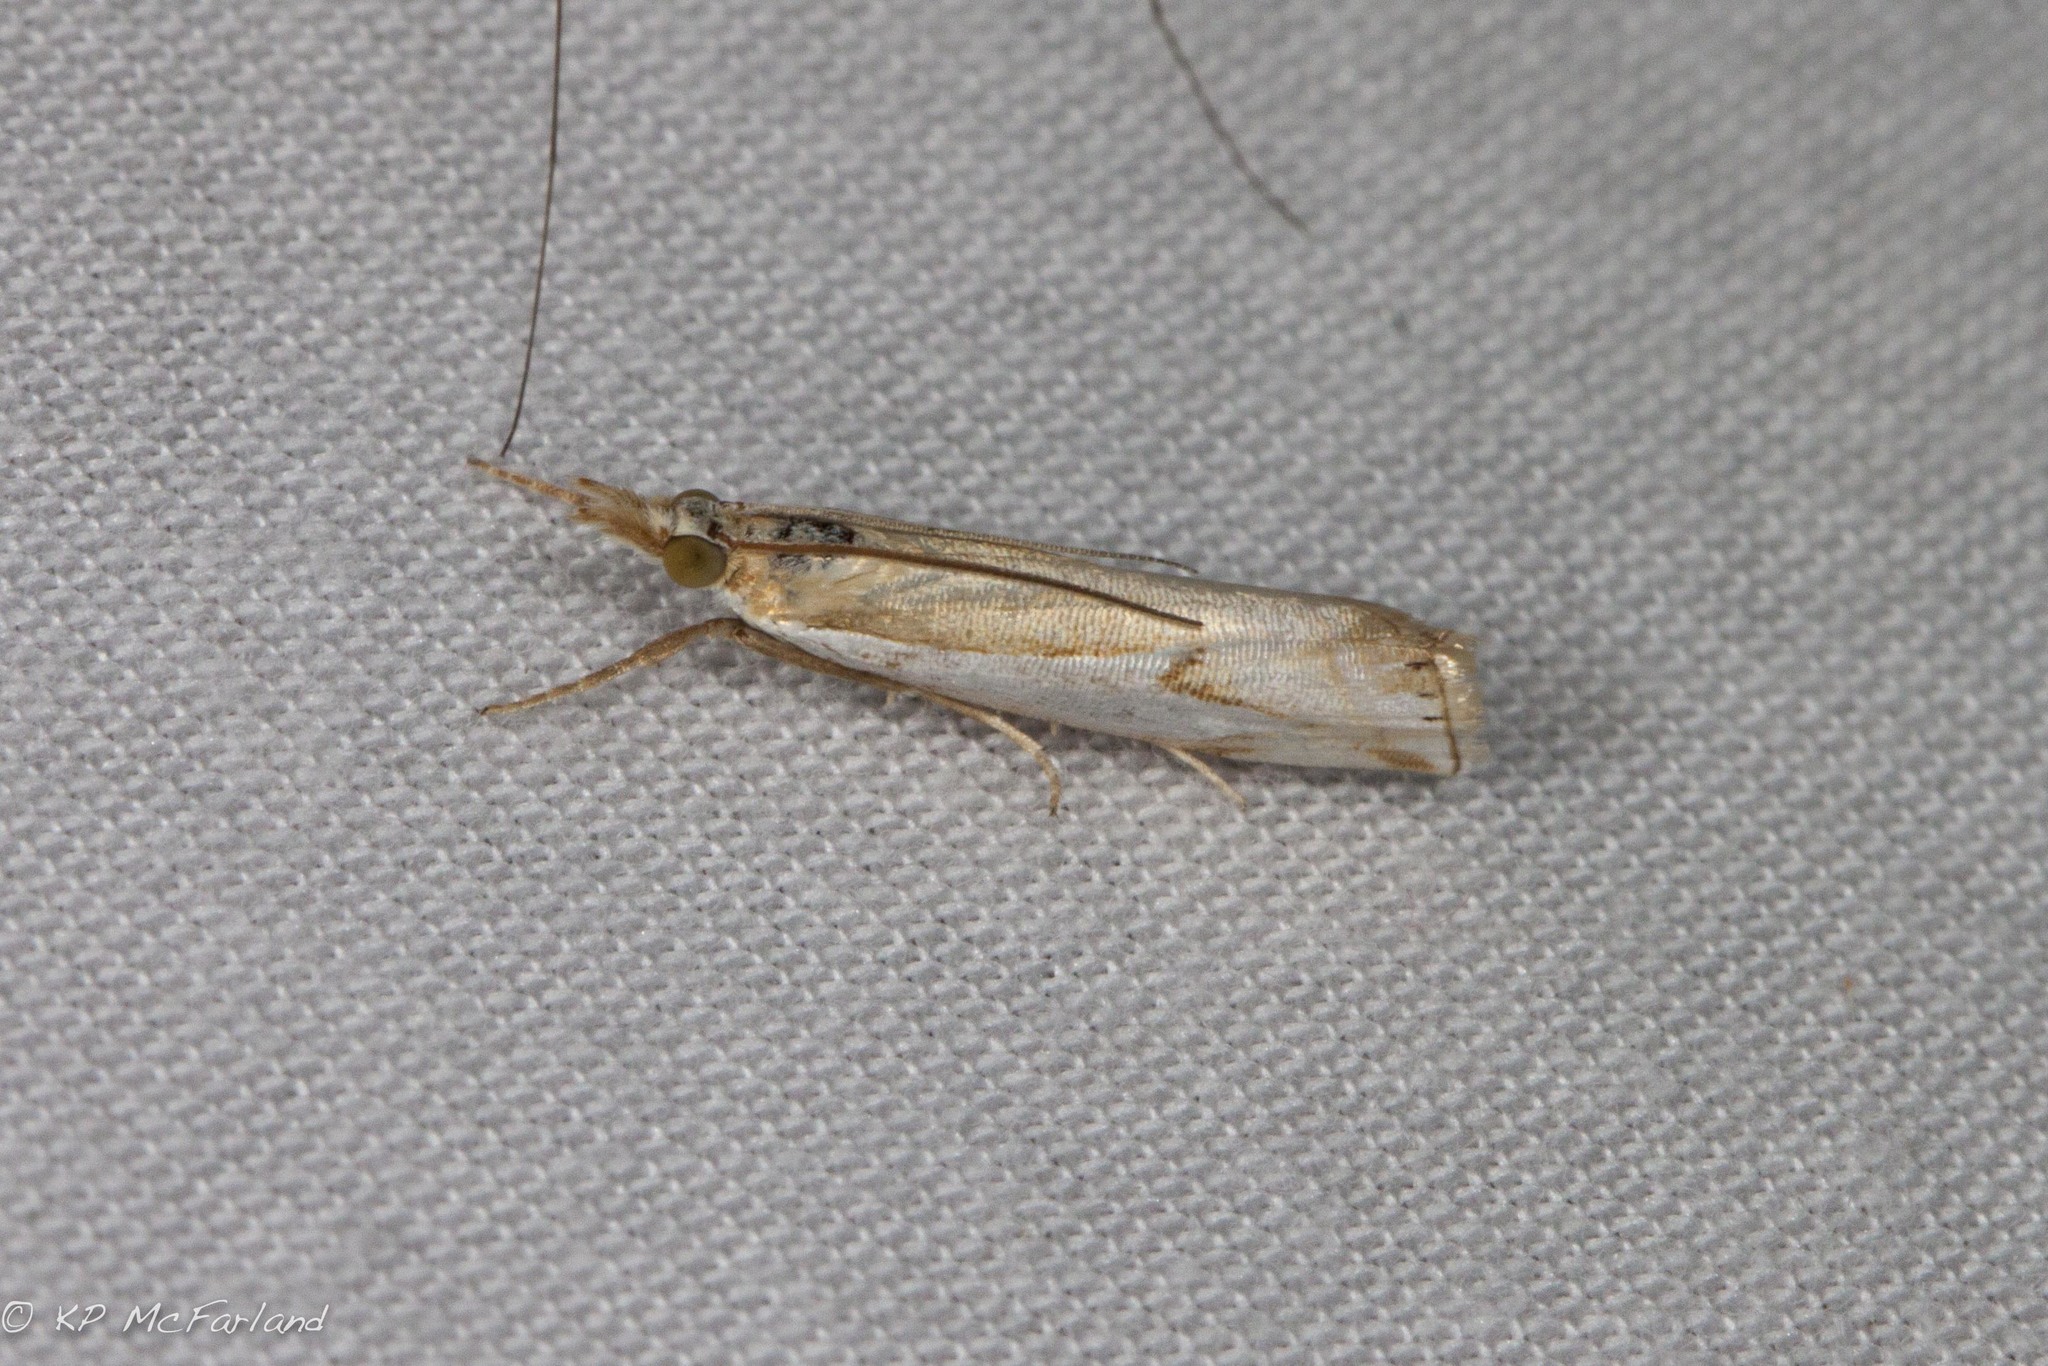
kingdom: Animalia
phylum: Arthropoda
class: Insecta
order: Lepidoptera
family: Crambidae
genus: Crambus
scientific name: Crambus bidens
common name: Forked grass-veneer
